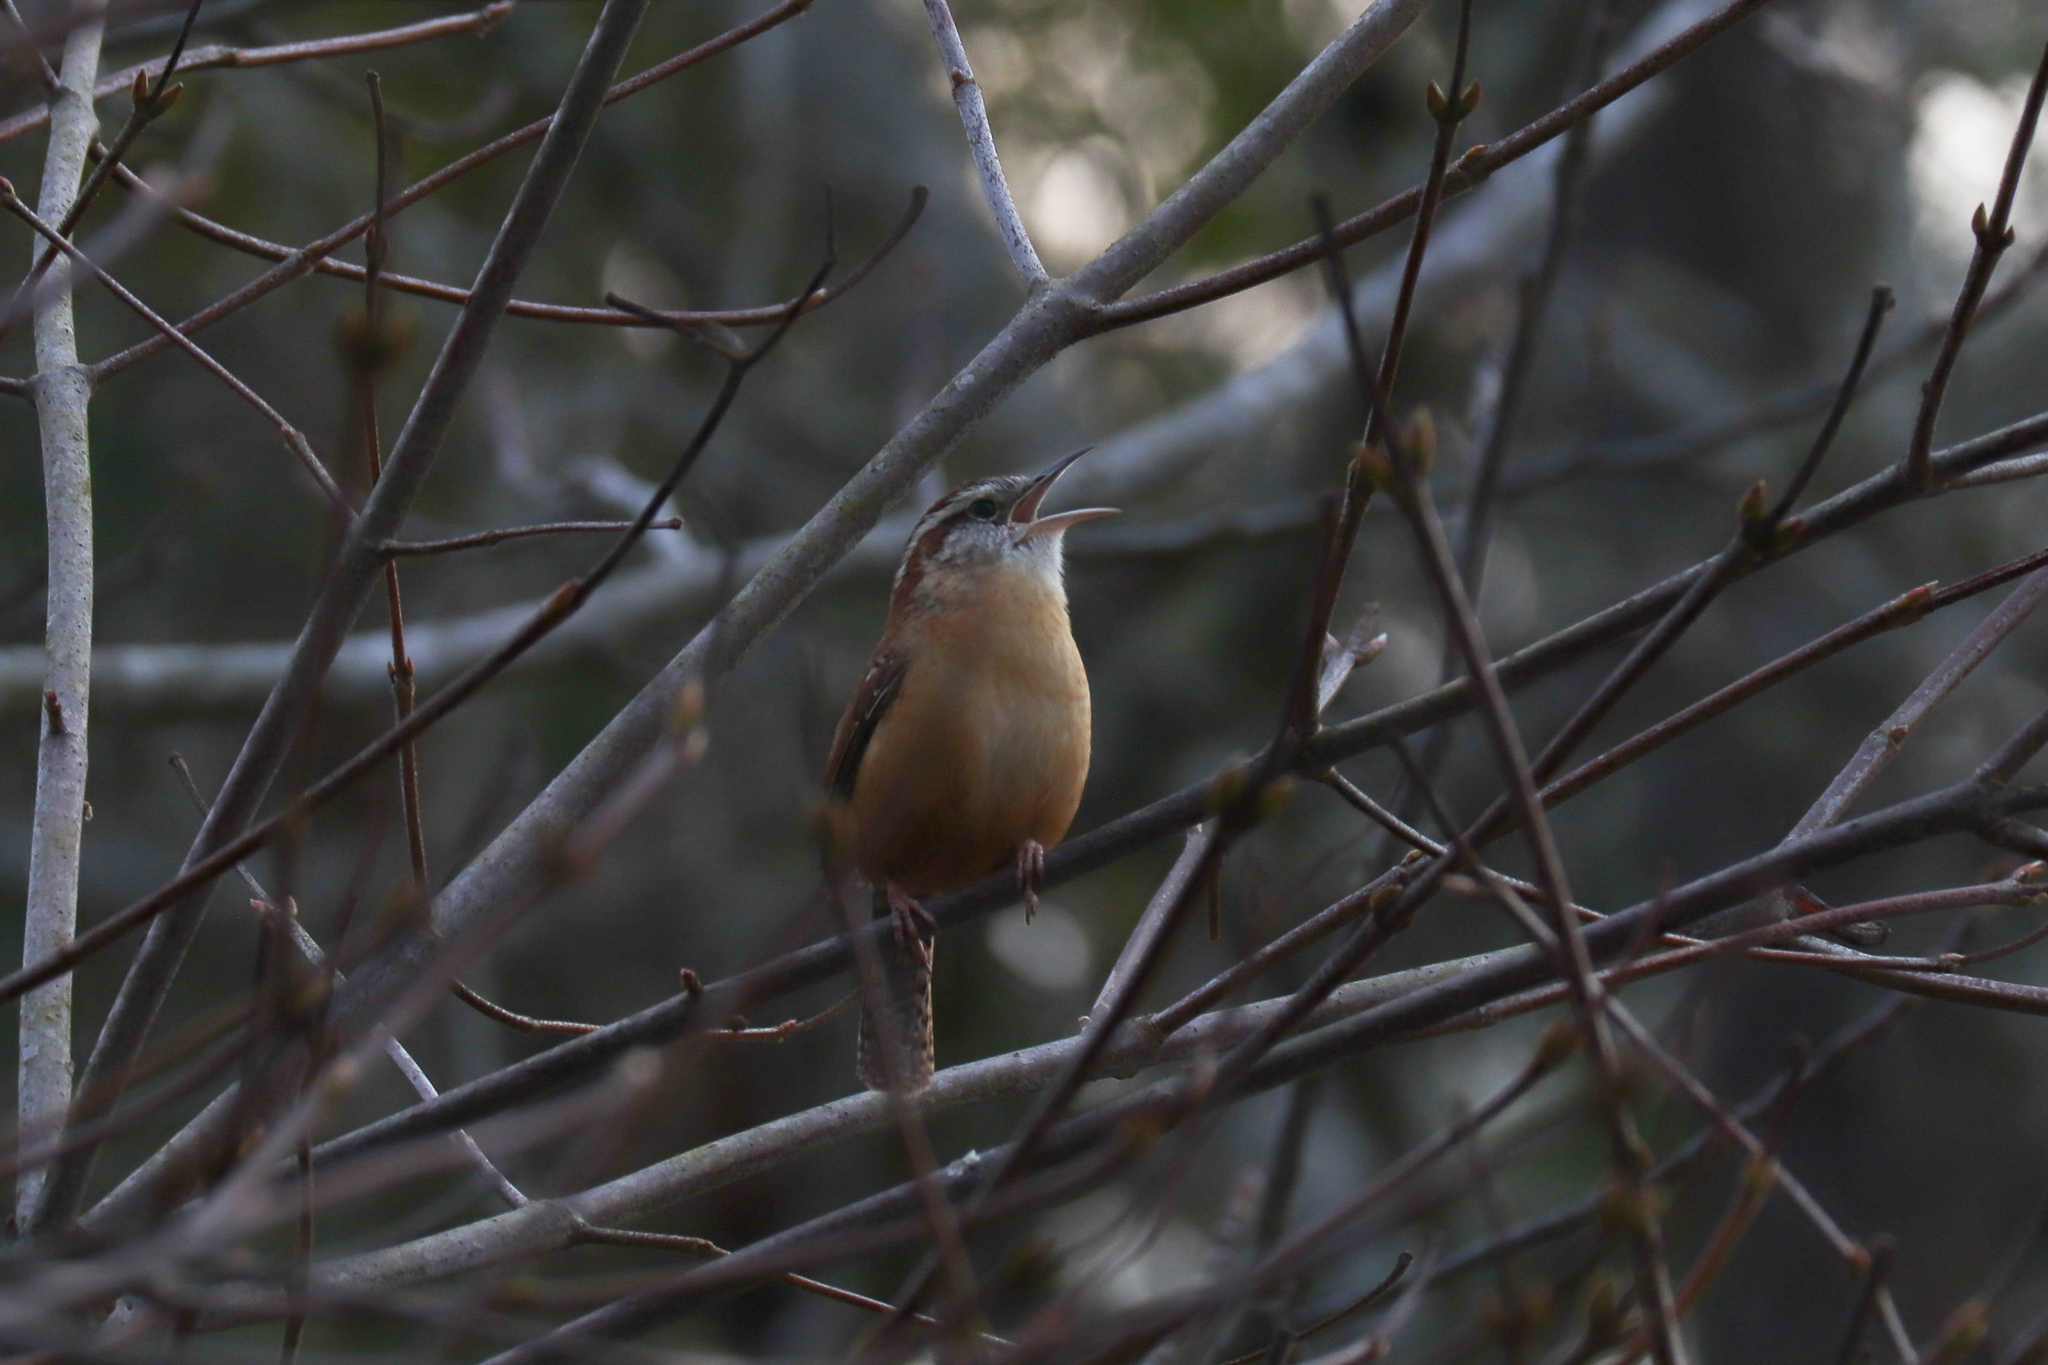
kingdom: Animalia
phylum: Chordata
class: Aves
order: Passeriformes
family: Troglodytidae
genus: Thryothorus
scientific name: Thryothorus ludovicianus
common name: Carolina wren
